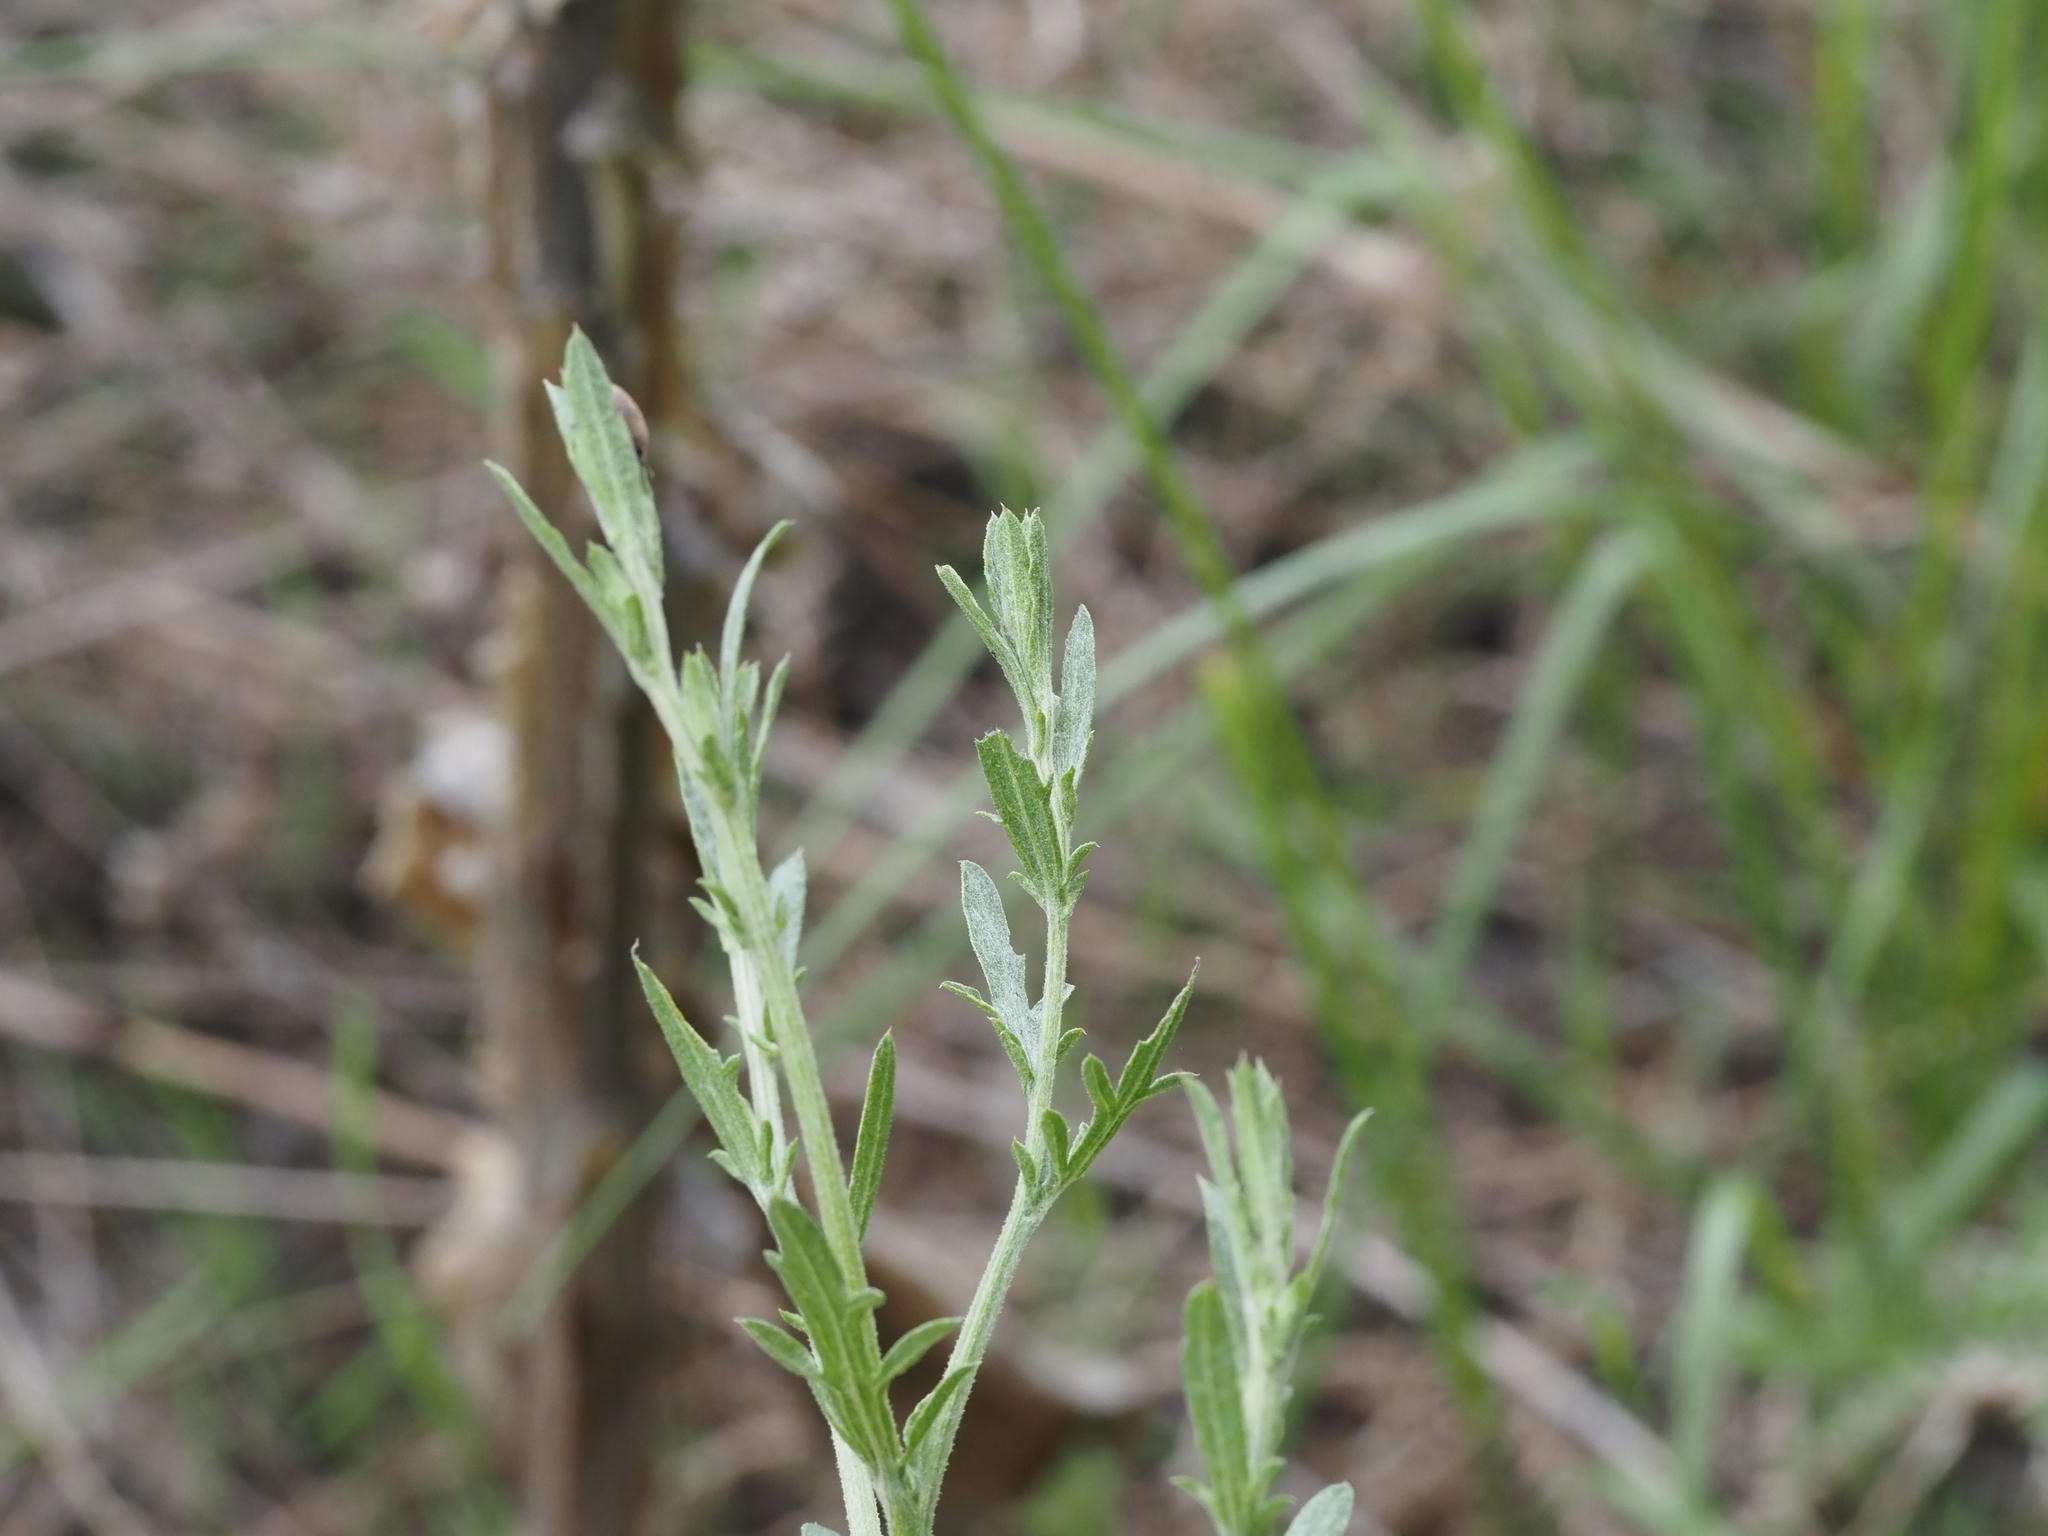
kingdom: Plantae
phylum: Tracheophyta
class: Magnoliopsida
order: Asterales
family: Asteraceae
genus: Centaurea
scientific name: Centaurea diffusa
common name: Diffuse knapweed
